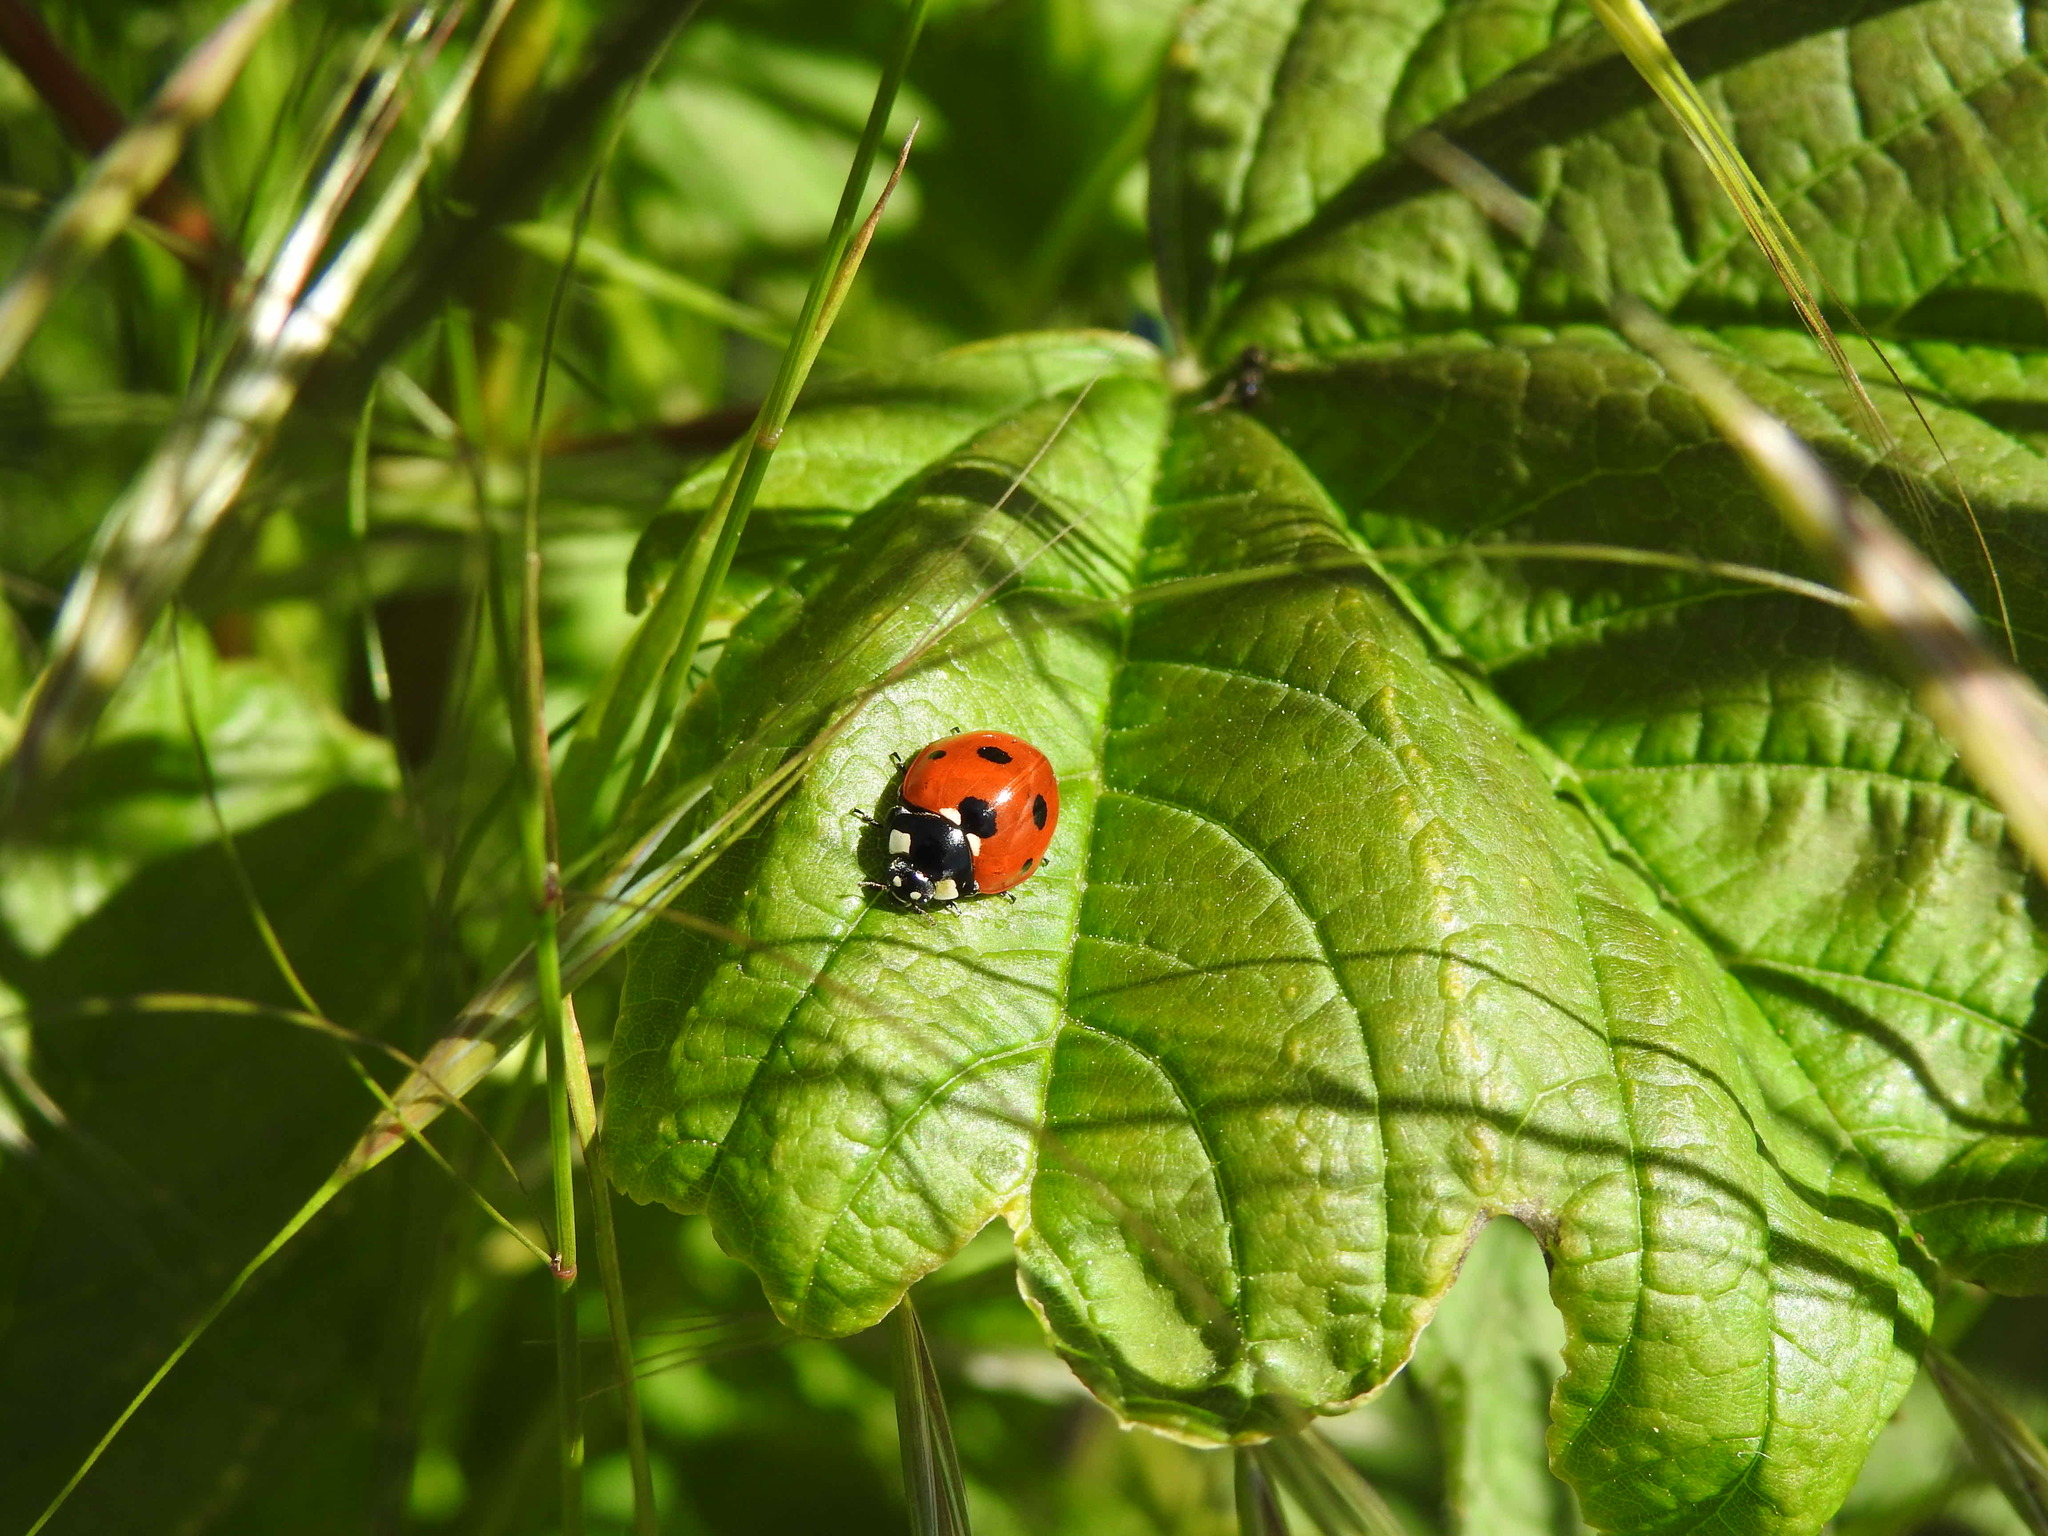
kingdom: Animalia
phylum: Arthropoda
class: Insecta
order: Coleoptera
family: Coccinellidae
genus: Coccinella
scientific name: Coccinella septempunctata
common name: Sevenspotted lady beetle
